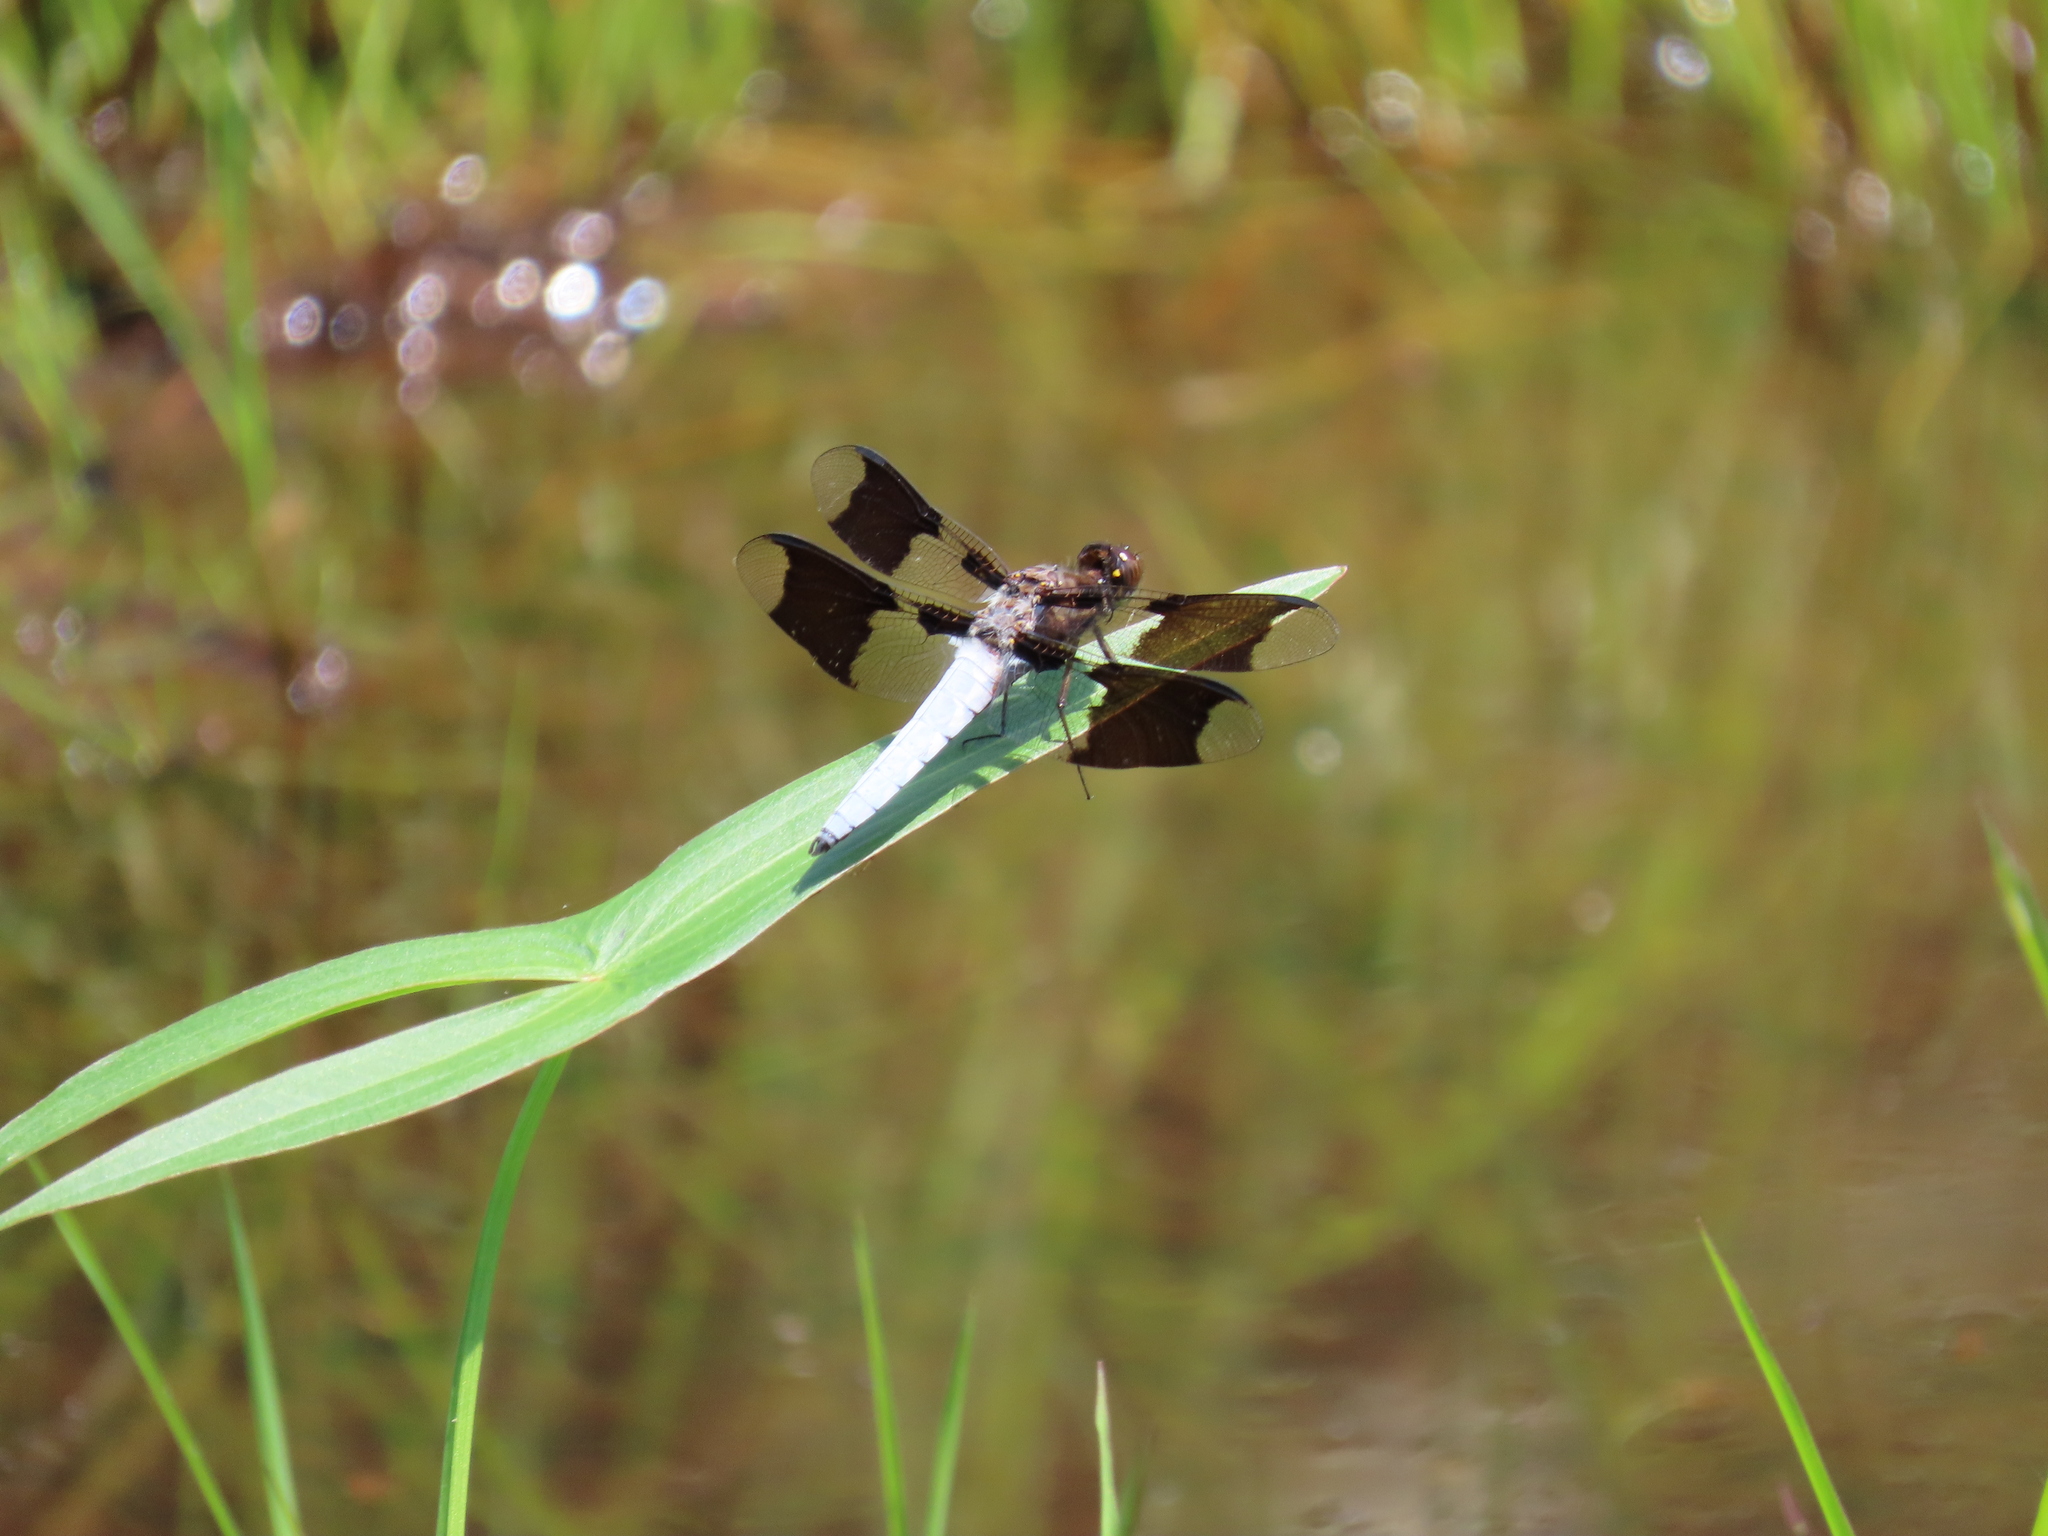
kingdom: Animalia
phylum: Arthropoda
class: Insecta
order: Odonata
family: Libellulidae
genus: Plathemis
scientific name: Plathemis lydia
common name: Common whitetail
